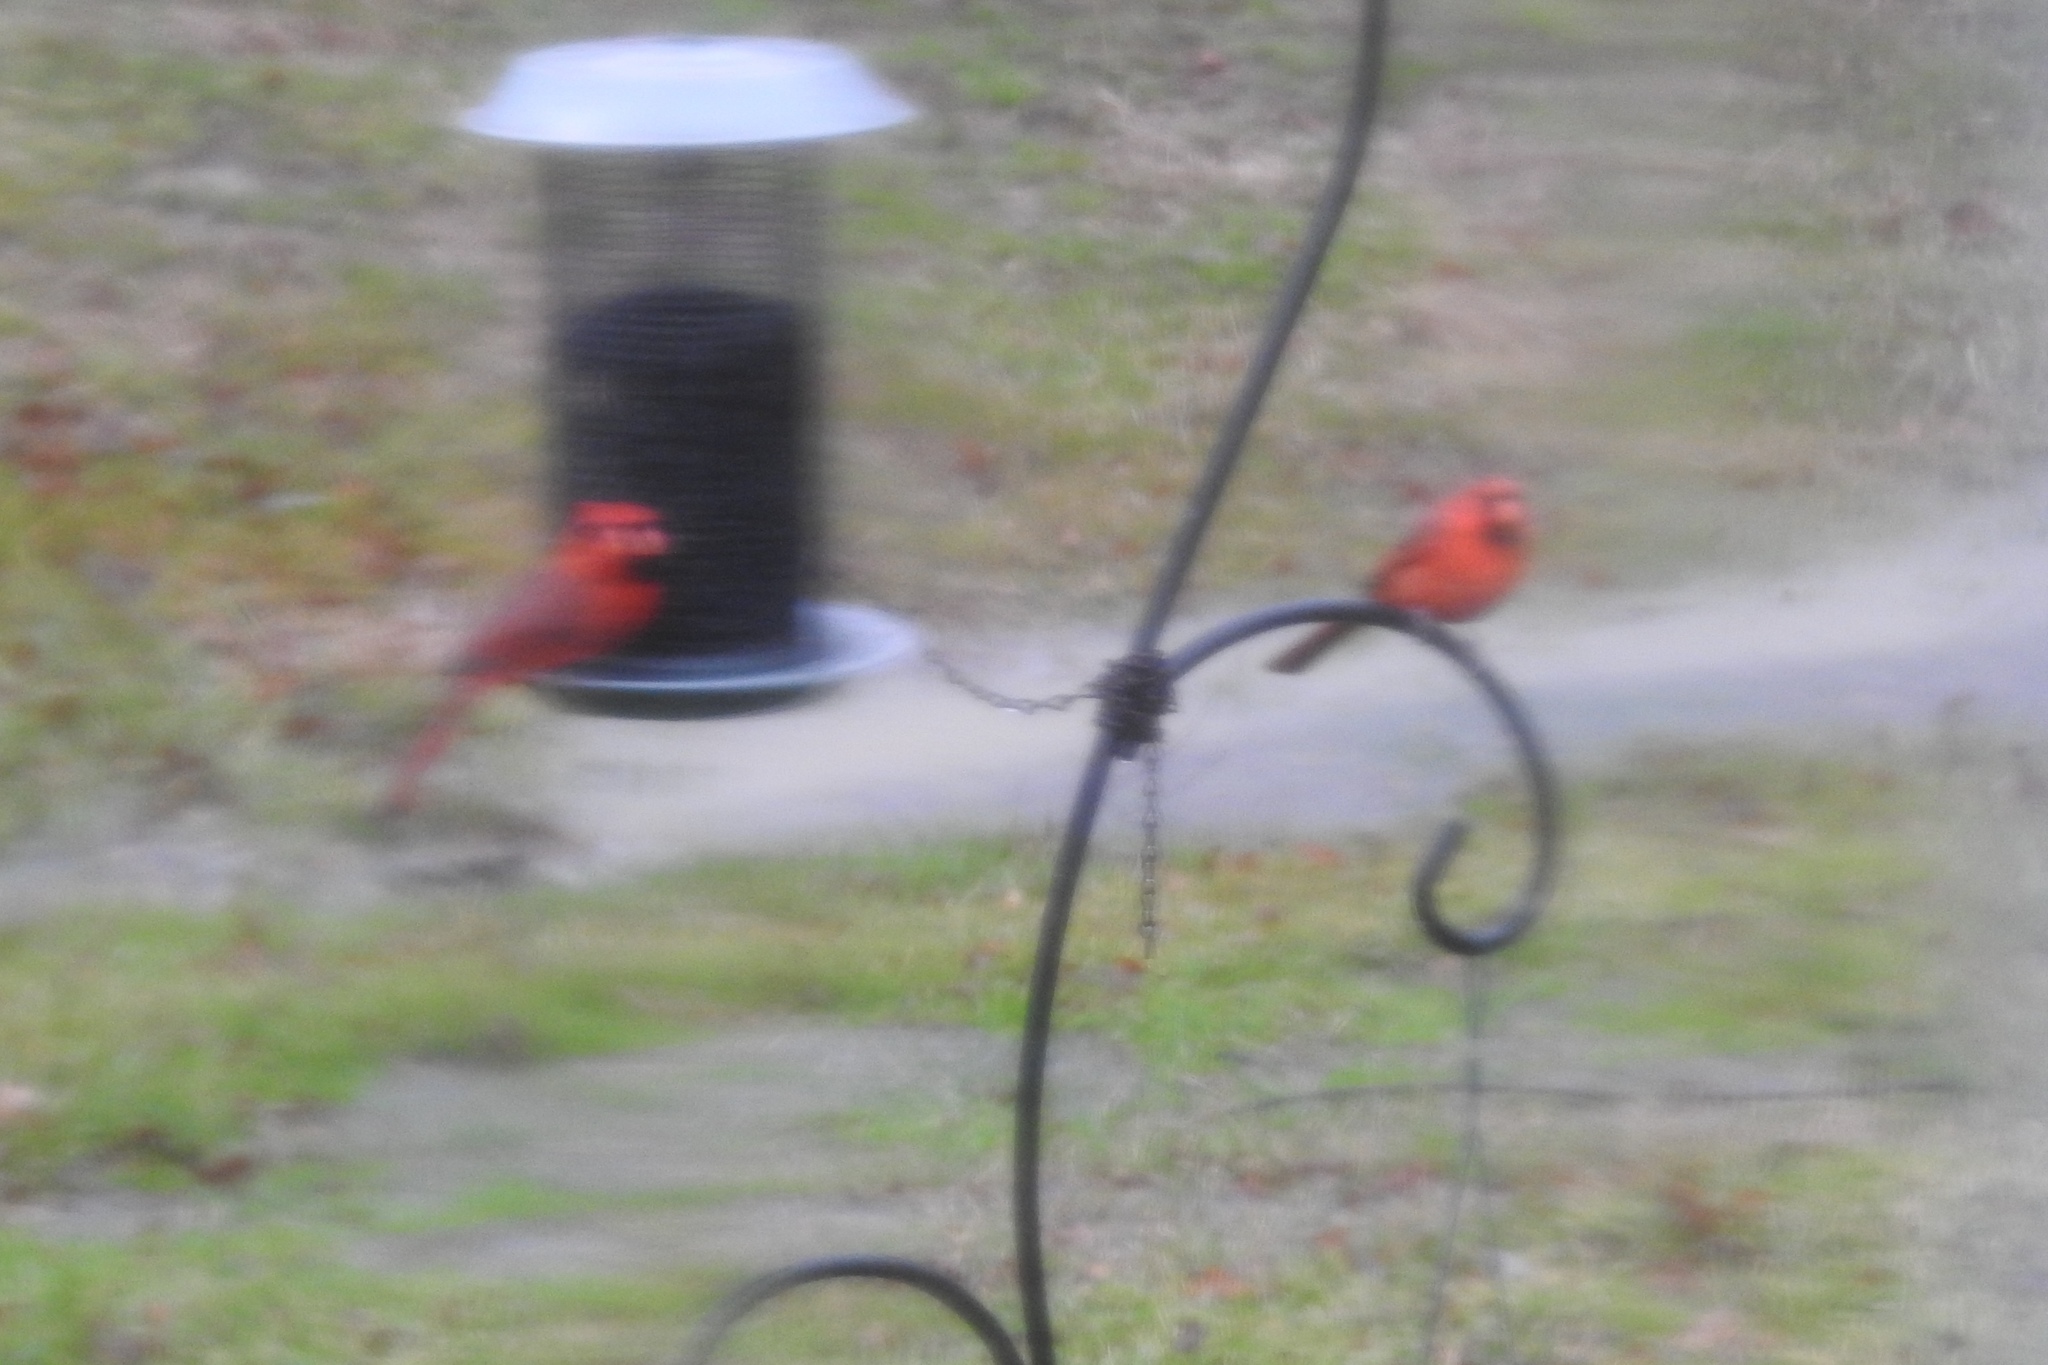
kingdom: Animalia
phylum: Chordata
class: Aves
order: Passeriformes
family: Cardinalidae
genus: Cardinalis
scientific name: Cardinalis cardinalis
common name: Northern cardinal
